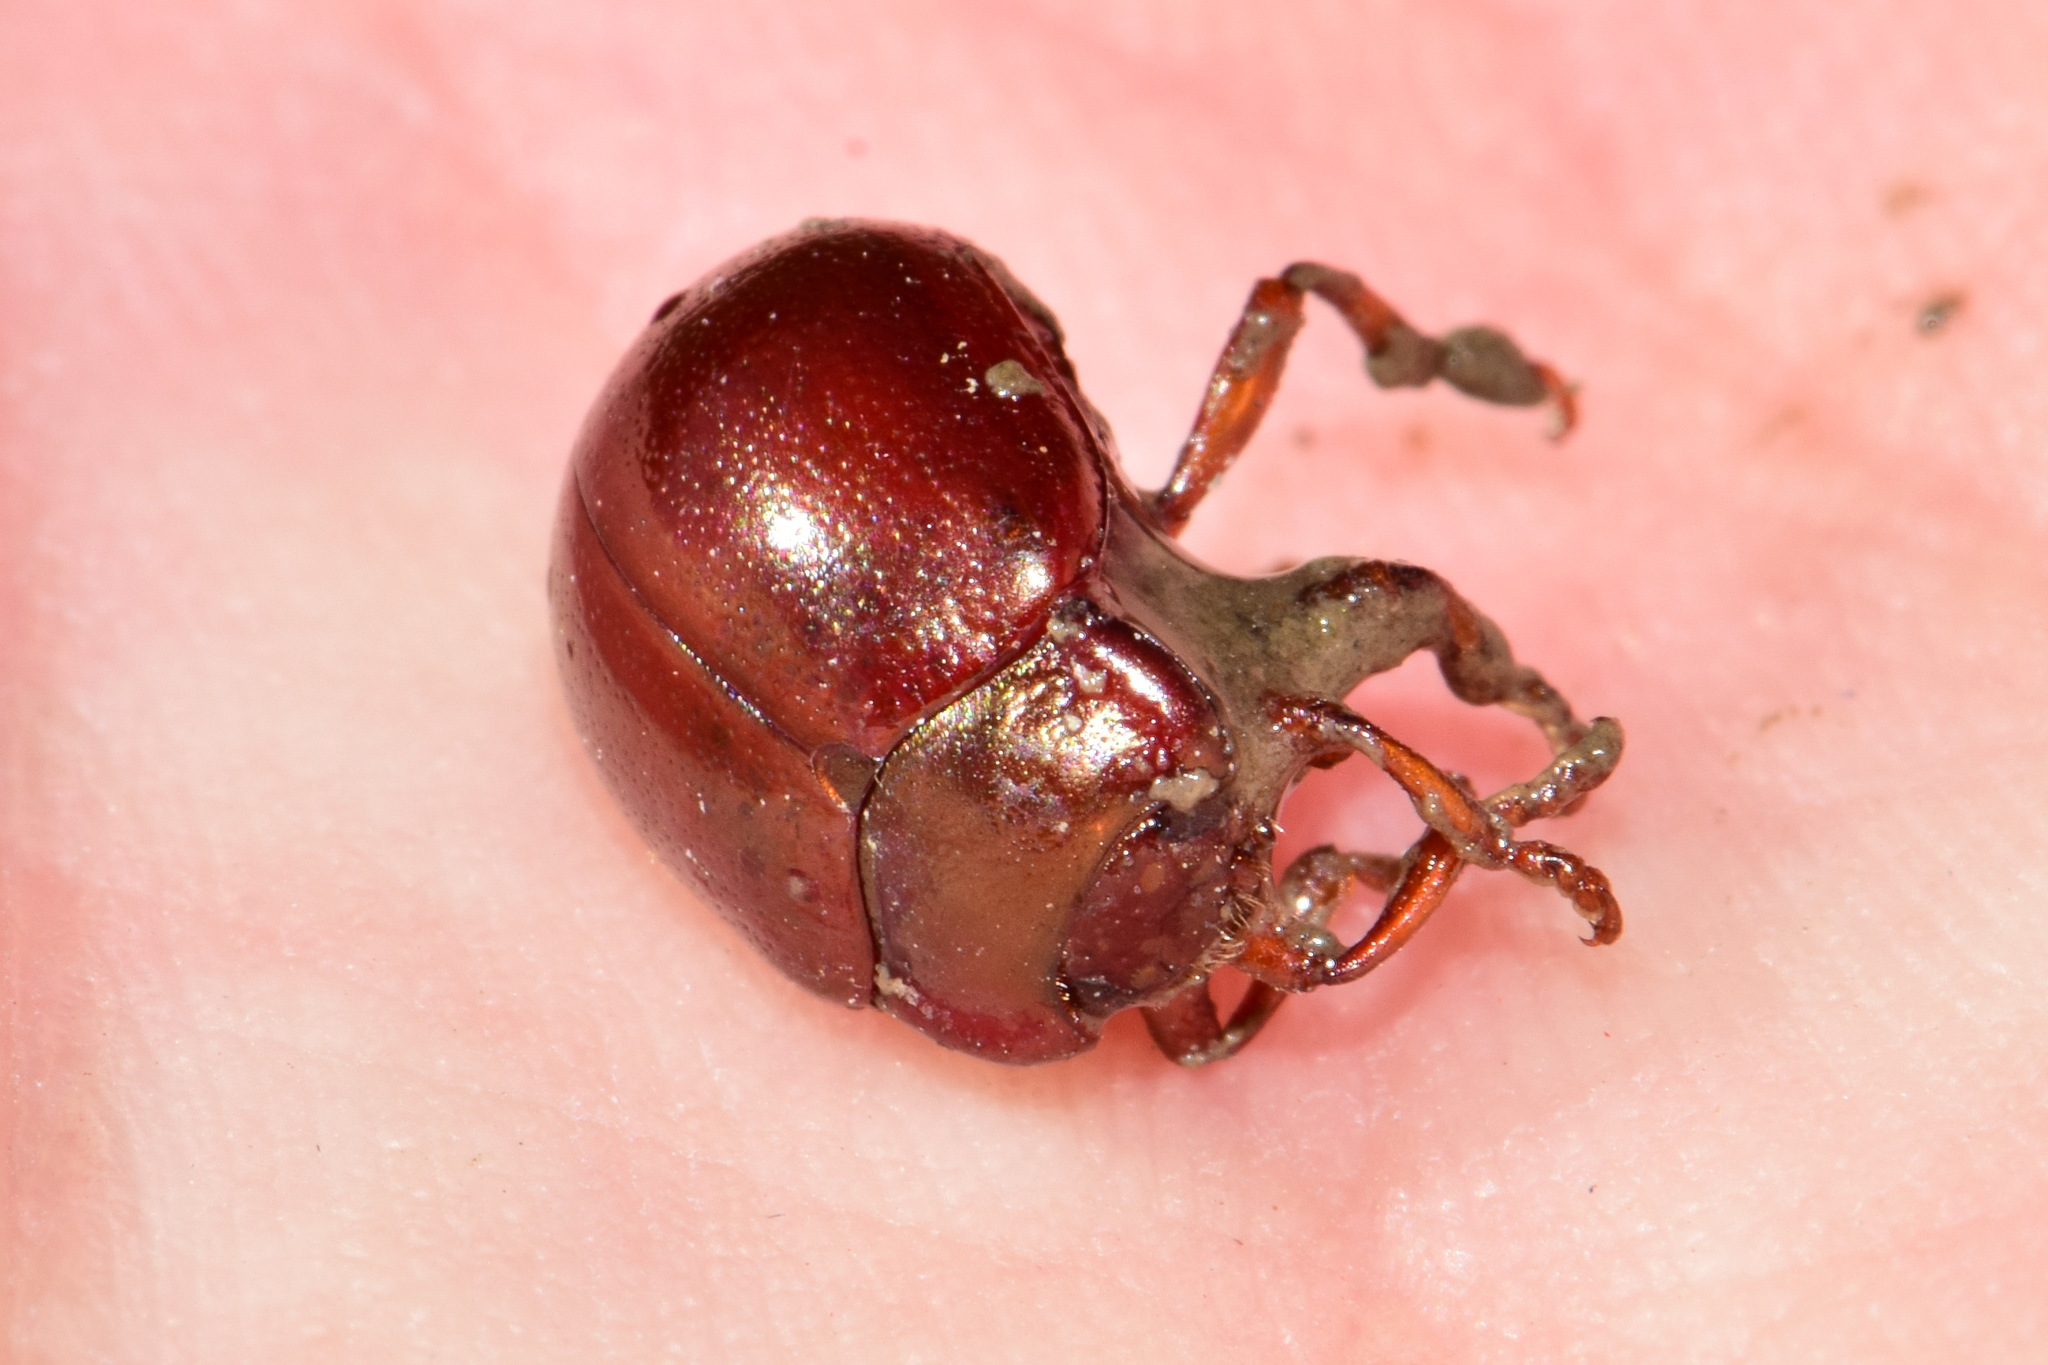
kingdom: Animalia
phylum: Arthropoda
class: Insecta
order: Coleoptera
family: Chrysomelidae
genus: Chrysolina
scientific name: Chrysolina staphylaea
